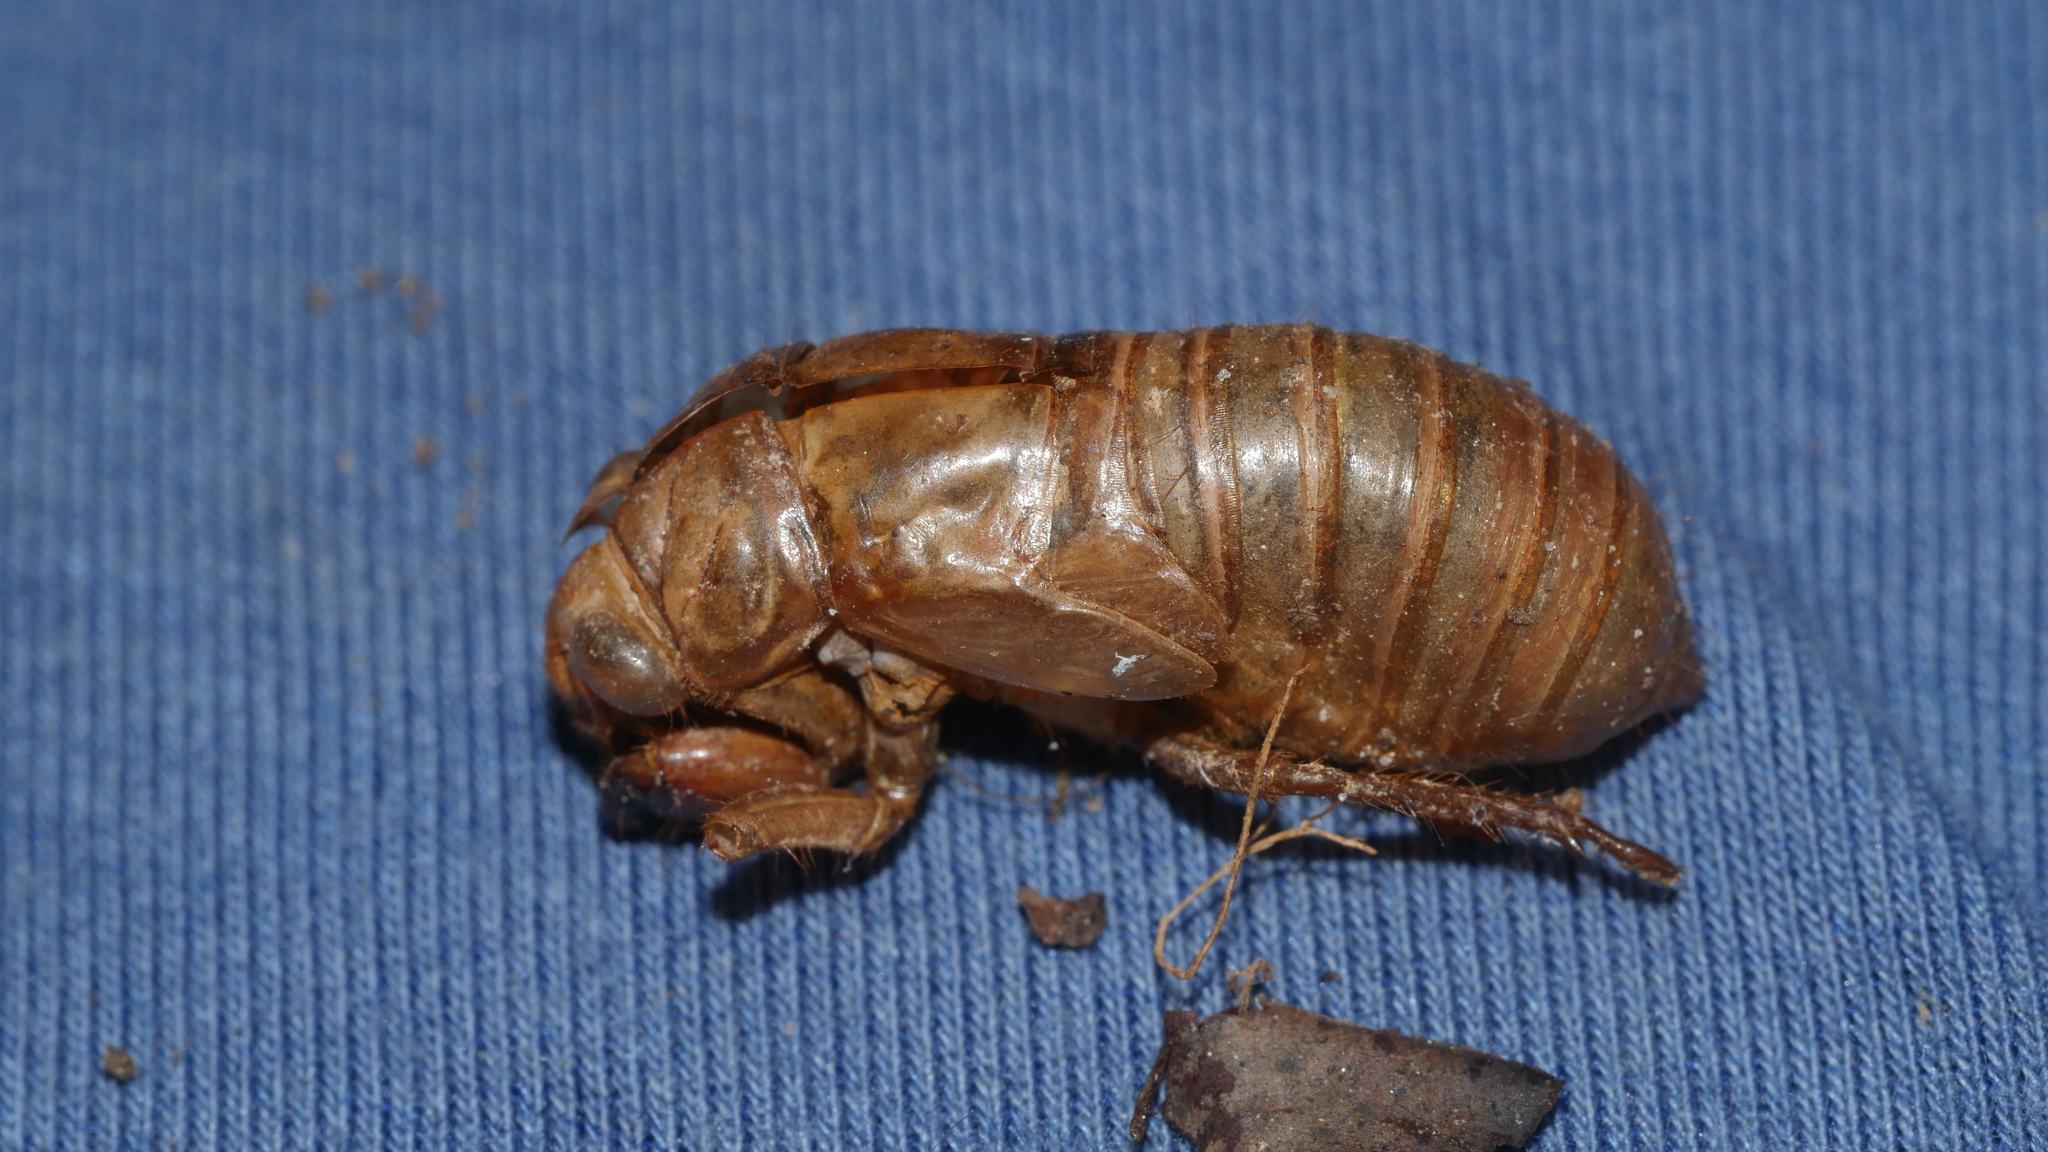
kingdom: Animalia
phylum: Arthropoda
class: Insecta
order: Hemiptera
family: Cicadidae
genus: Magicicada
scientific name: Magicicada
